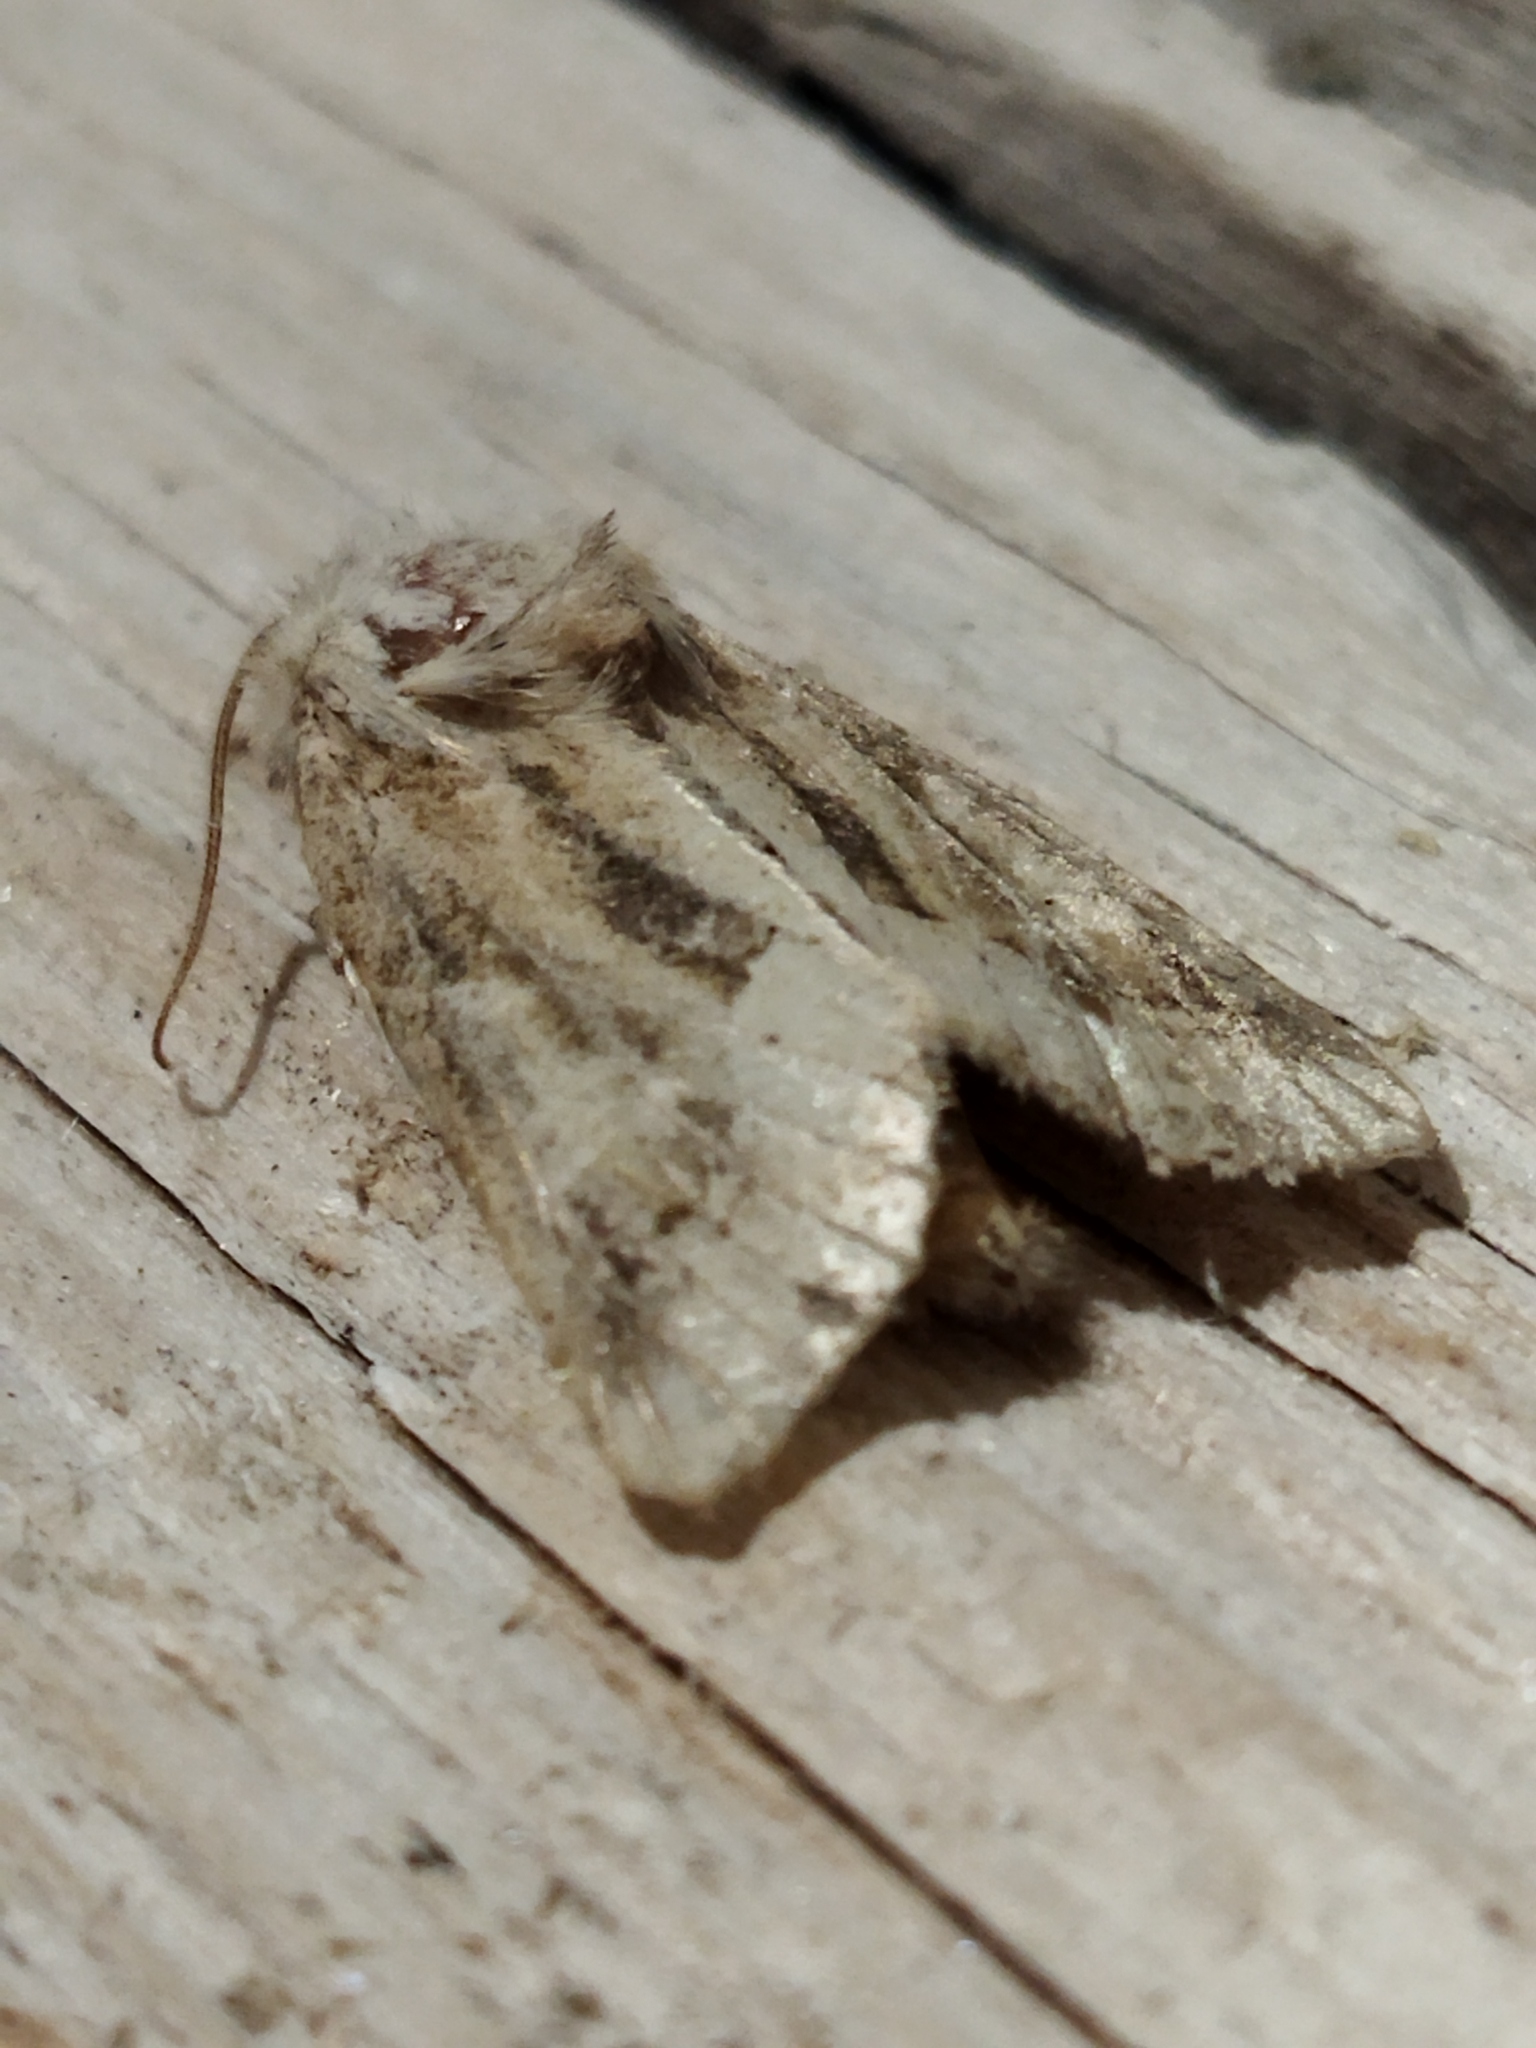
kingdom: Animalia
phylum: Arthropoda
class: Insecta
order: Lepidoptera
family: Noctuidae
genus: Luperina
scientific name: Luperina dumerilii
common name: Dumeril's rustic
